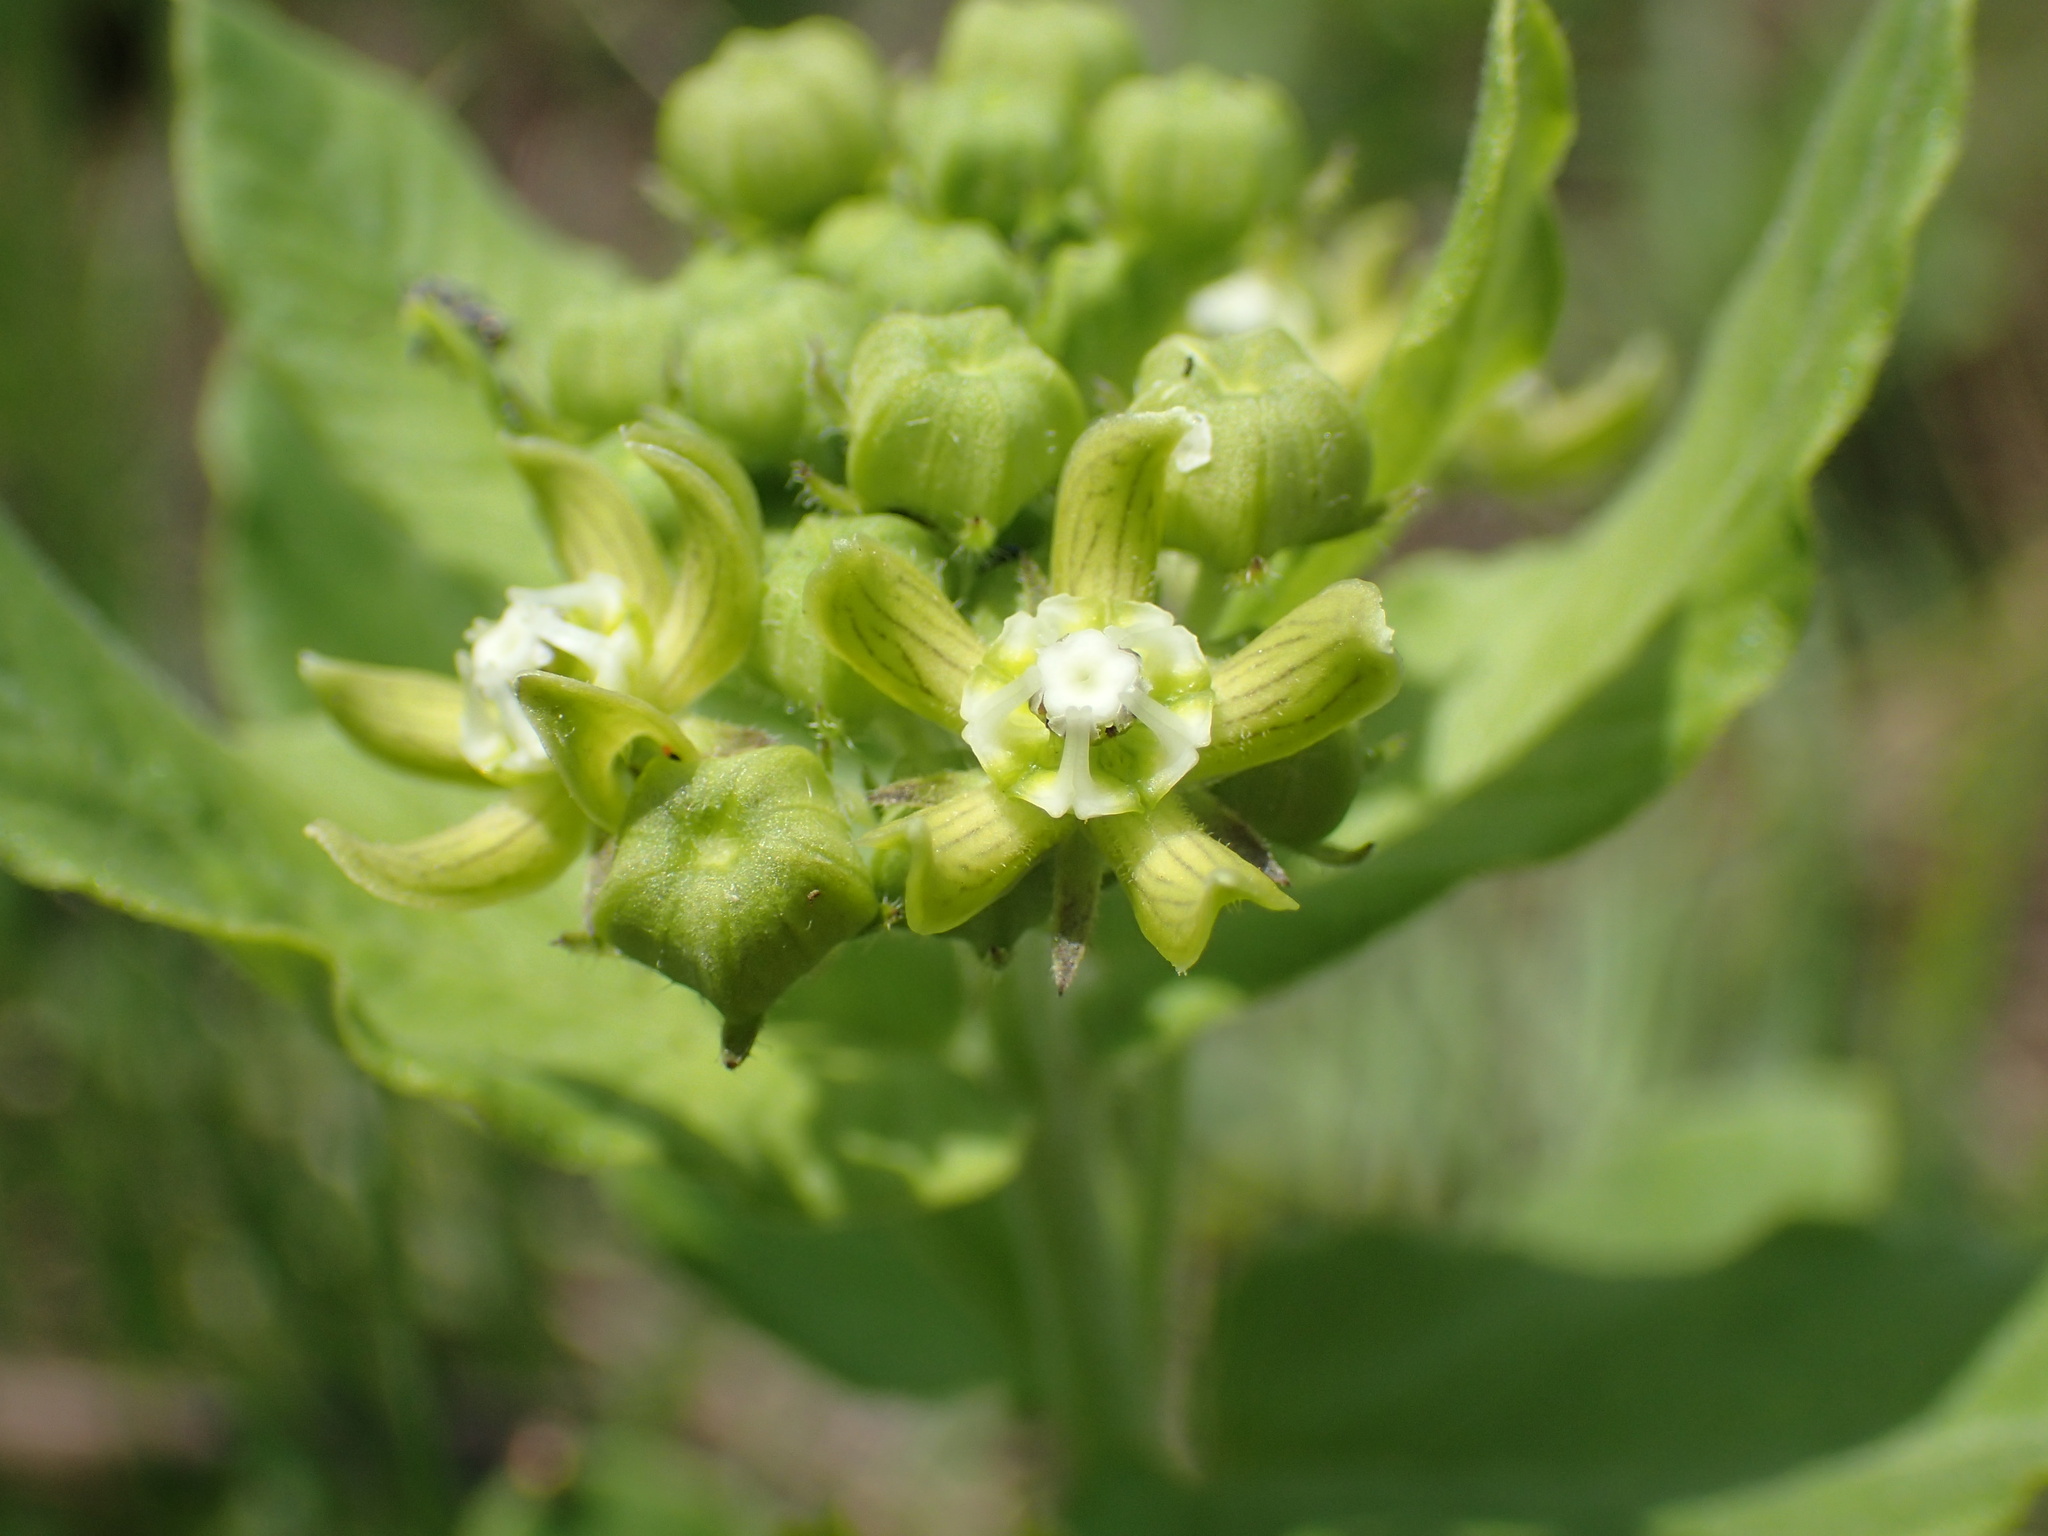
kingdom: Plantae
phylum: Tracheophyta
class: Magnoliopsida
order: Gentianales
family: Apocynaceae
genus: Schizoglossum
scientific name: Schizoglossum cordifolium
